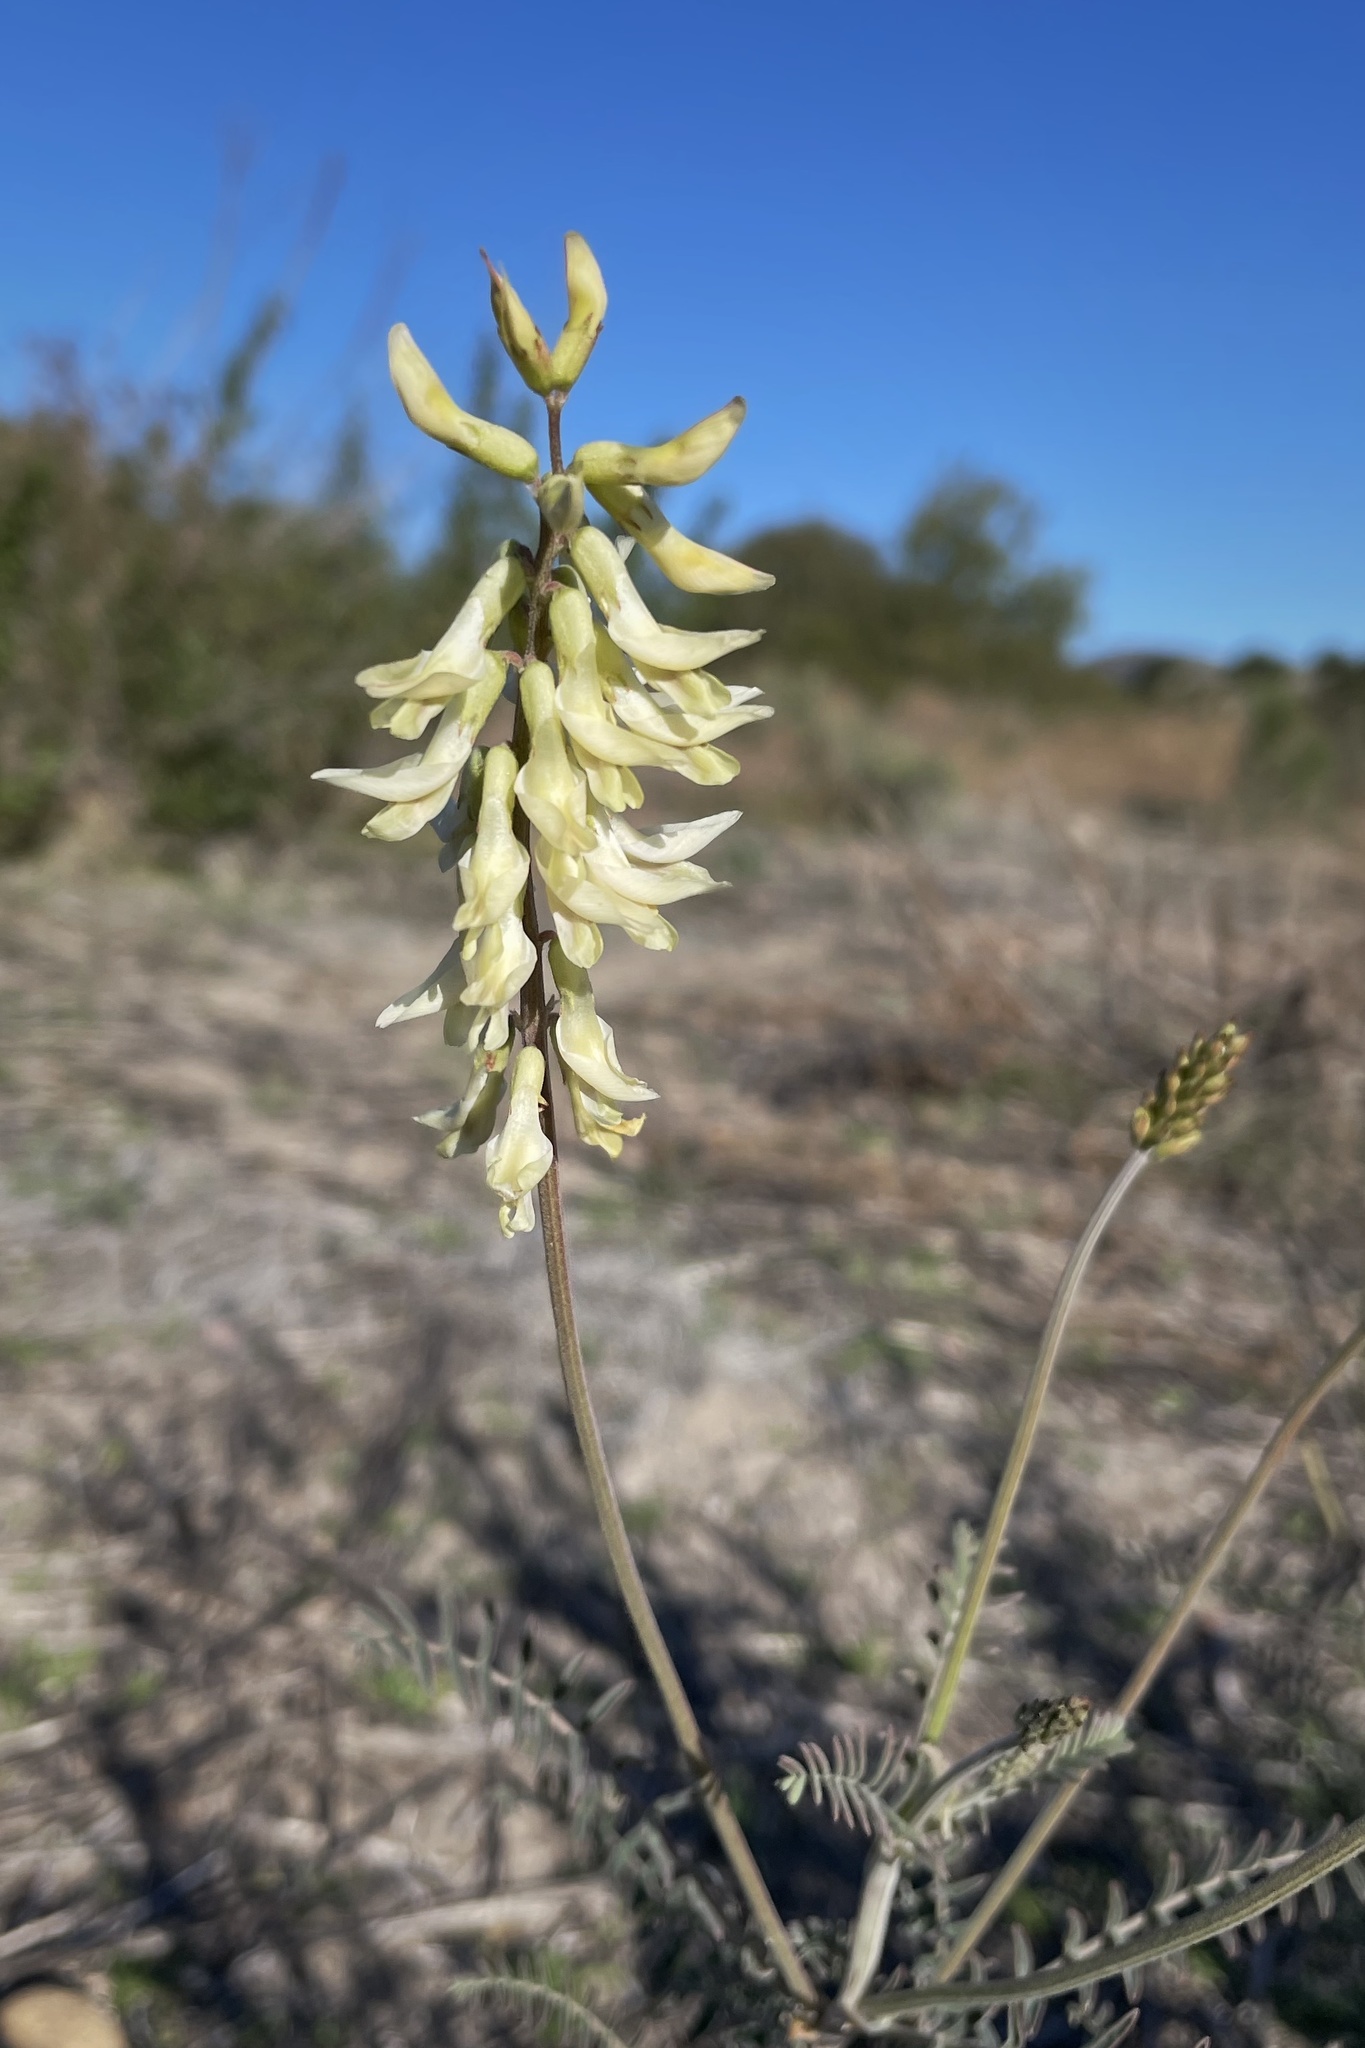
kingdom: Plantae
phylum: Tracheophyta
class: Magnoliopsida
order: Fabales
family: Fabaceae
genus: Astragalus
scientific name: Astragalus trichopodus
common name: Santa barbara milk-vetch
